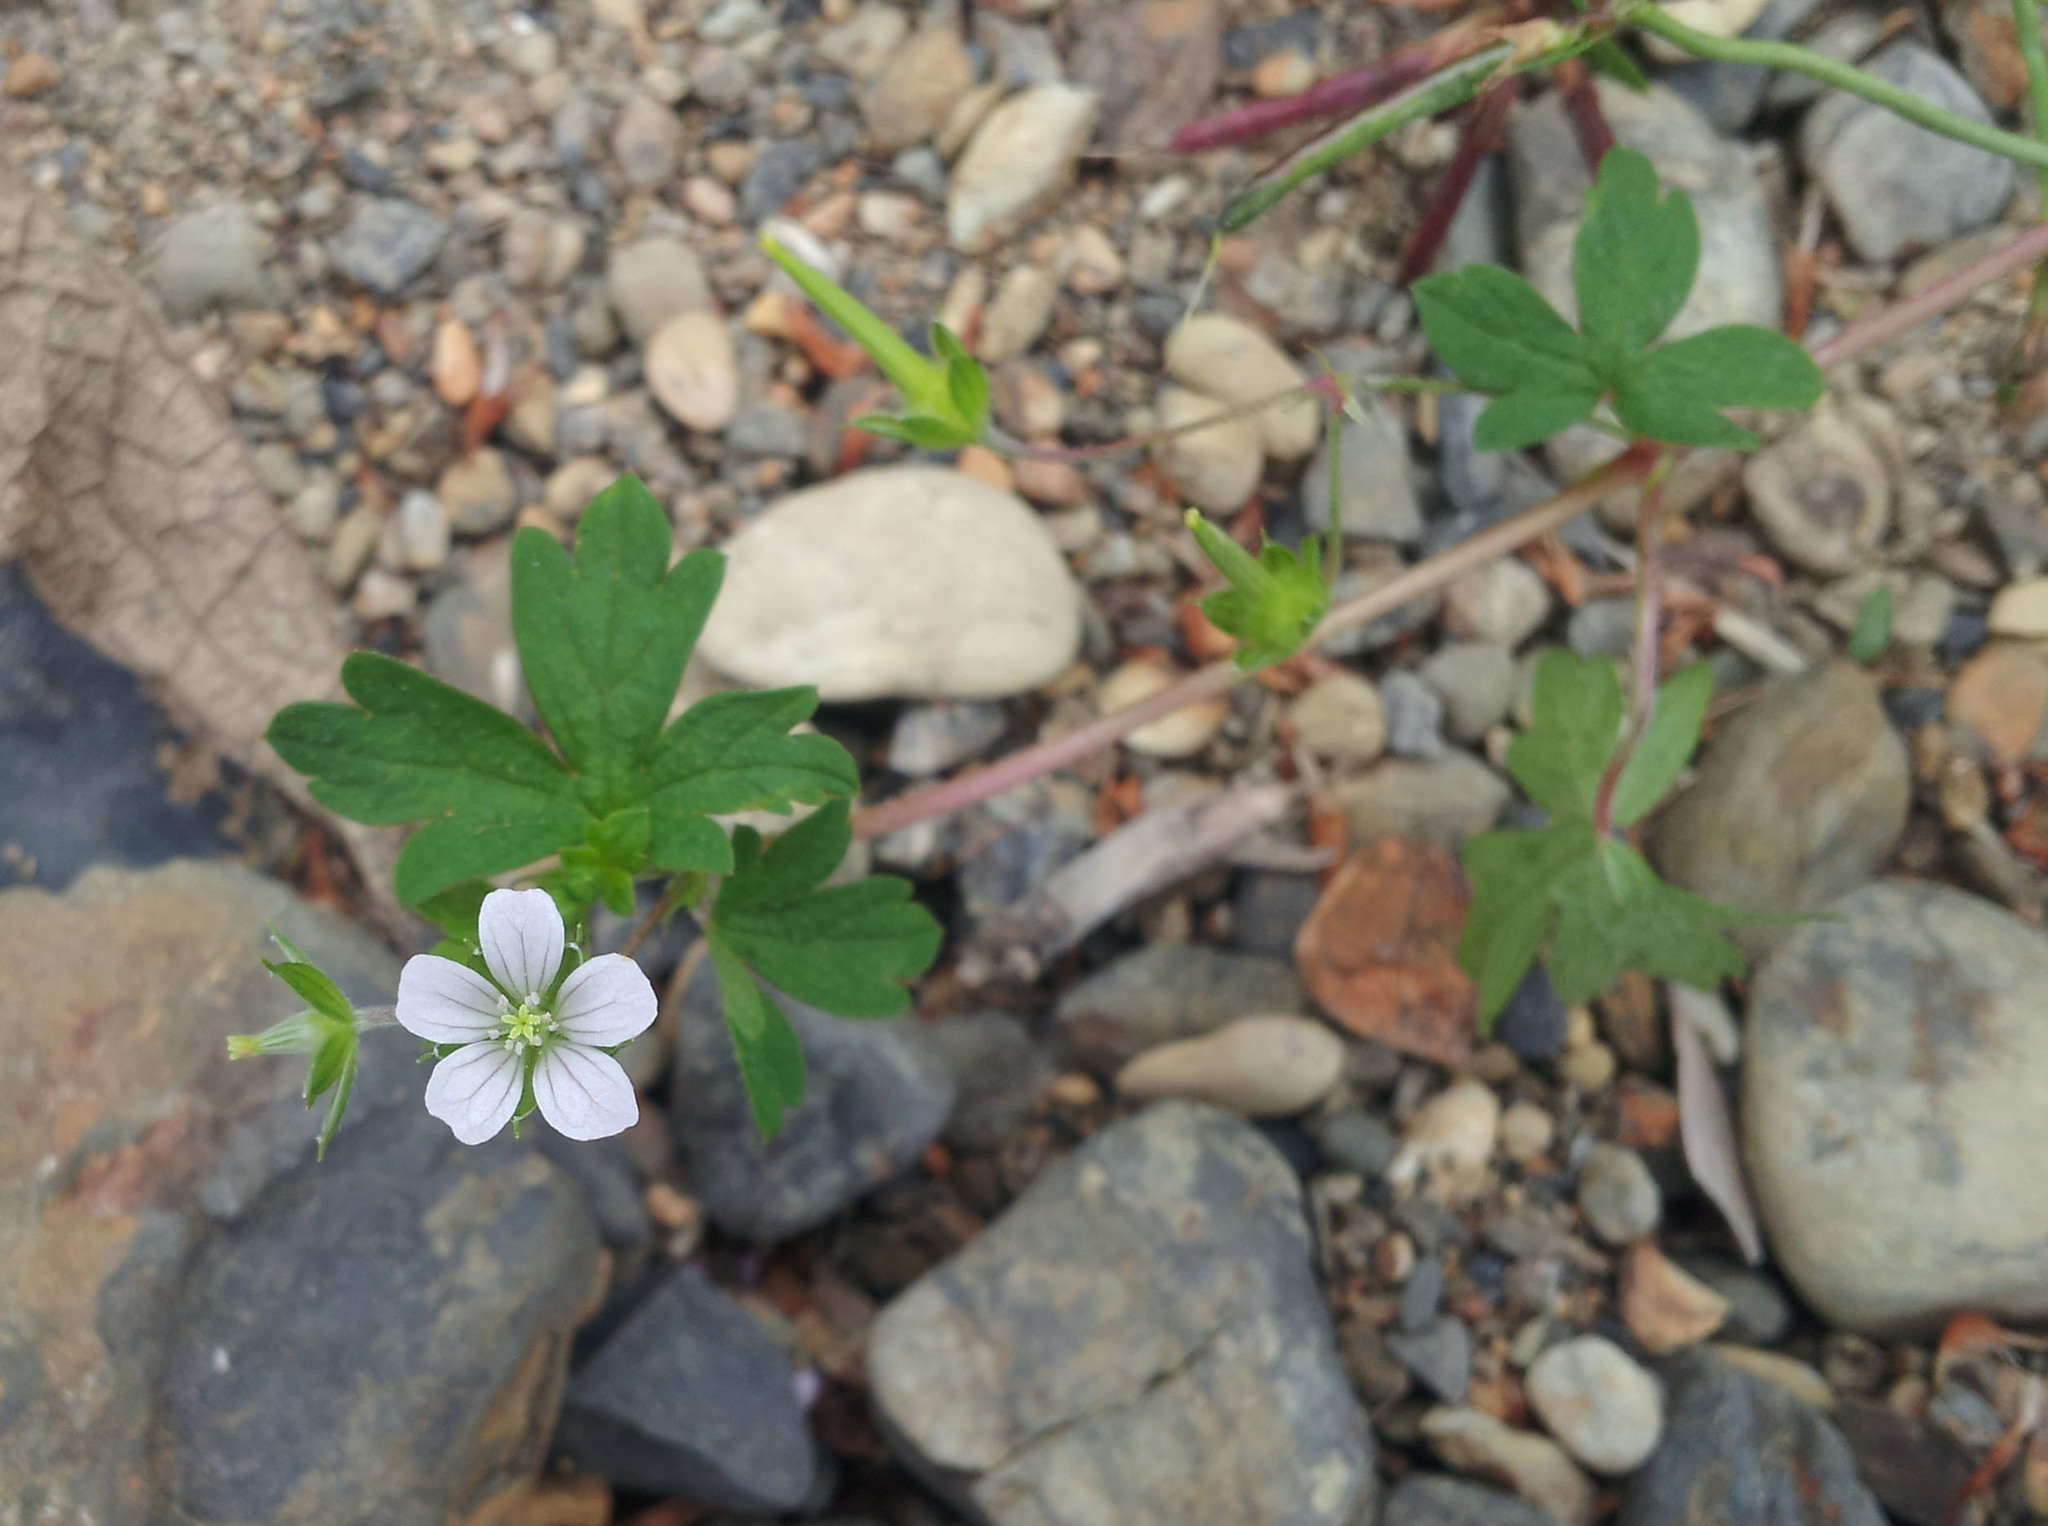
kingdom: Plantae
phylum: Tracheophyta
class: Magnoliopsida
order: Geraniales
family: Geraniaceae
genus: Geranium
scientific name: Geranium homeanum
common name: Australasian geranium
